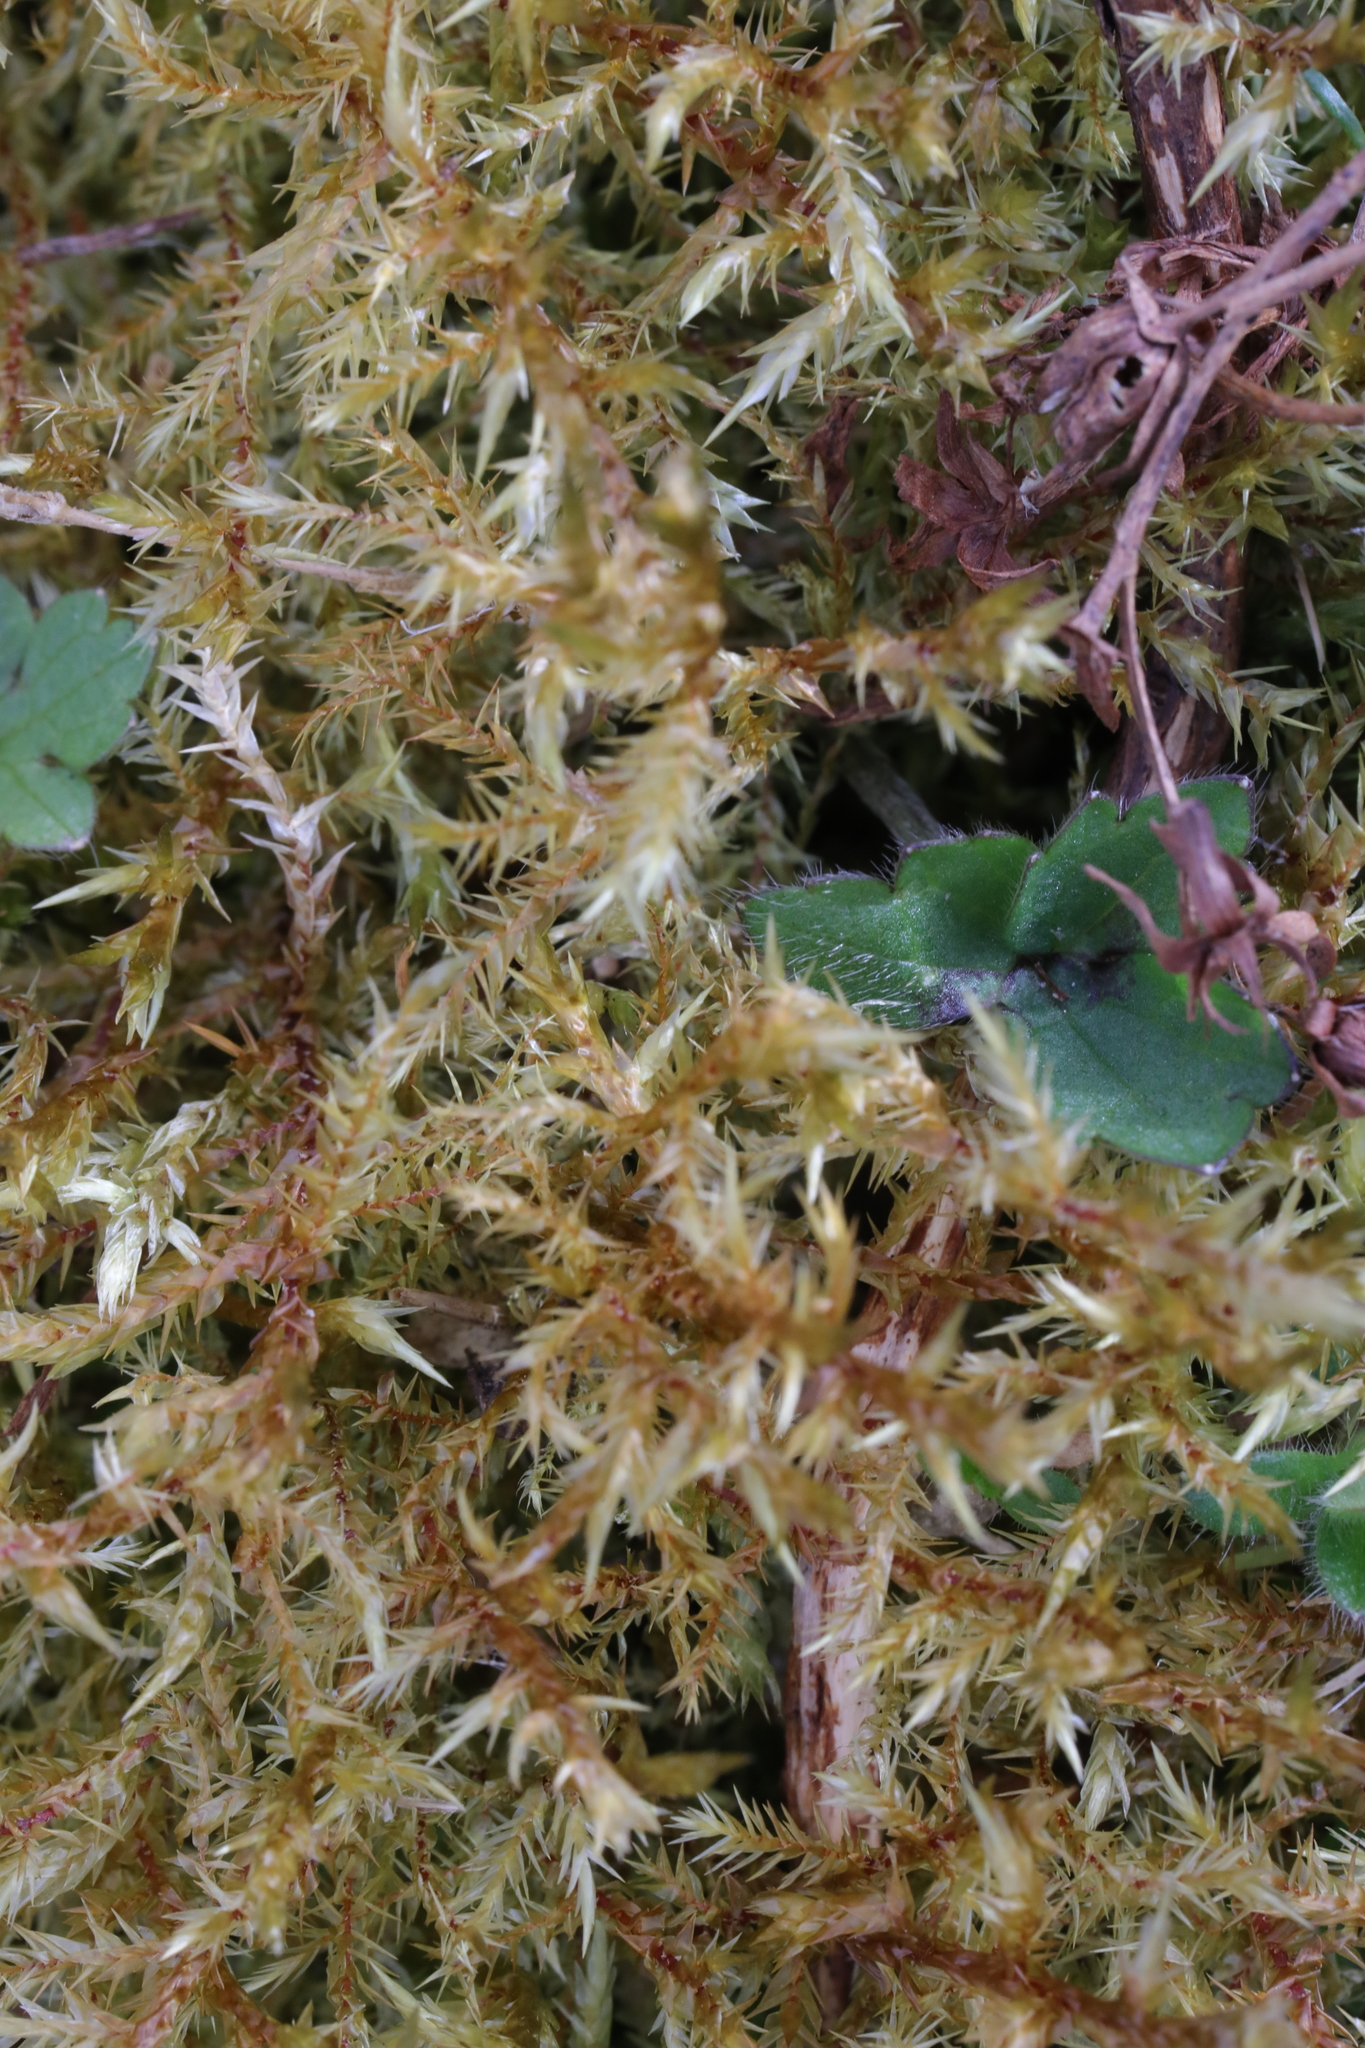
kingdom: Plantae
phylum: Bryophyta
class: Bryopsida
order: Hypnales
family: Pylaisiaceae
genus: Calliergonella
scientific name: Calliergonella cuspidata
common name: Common large wetland moss
